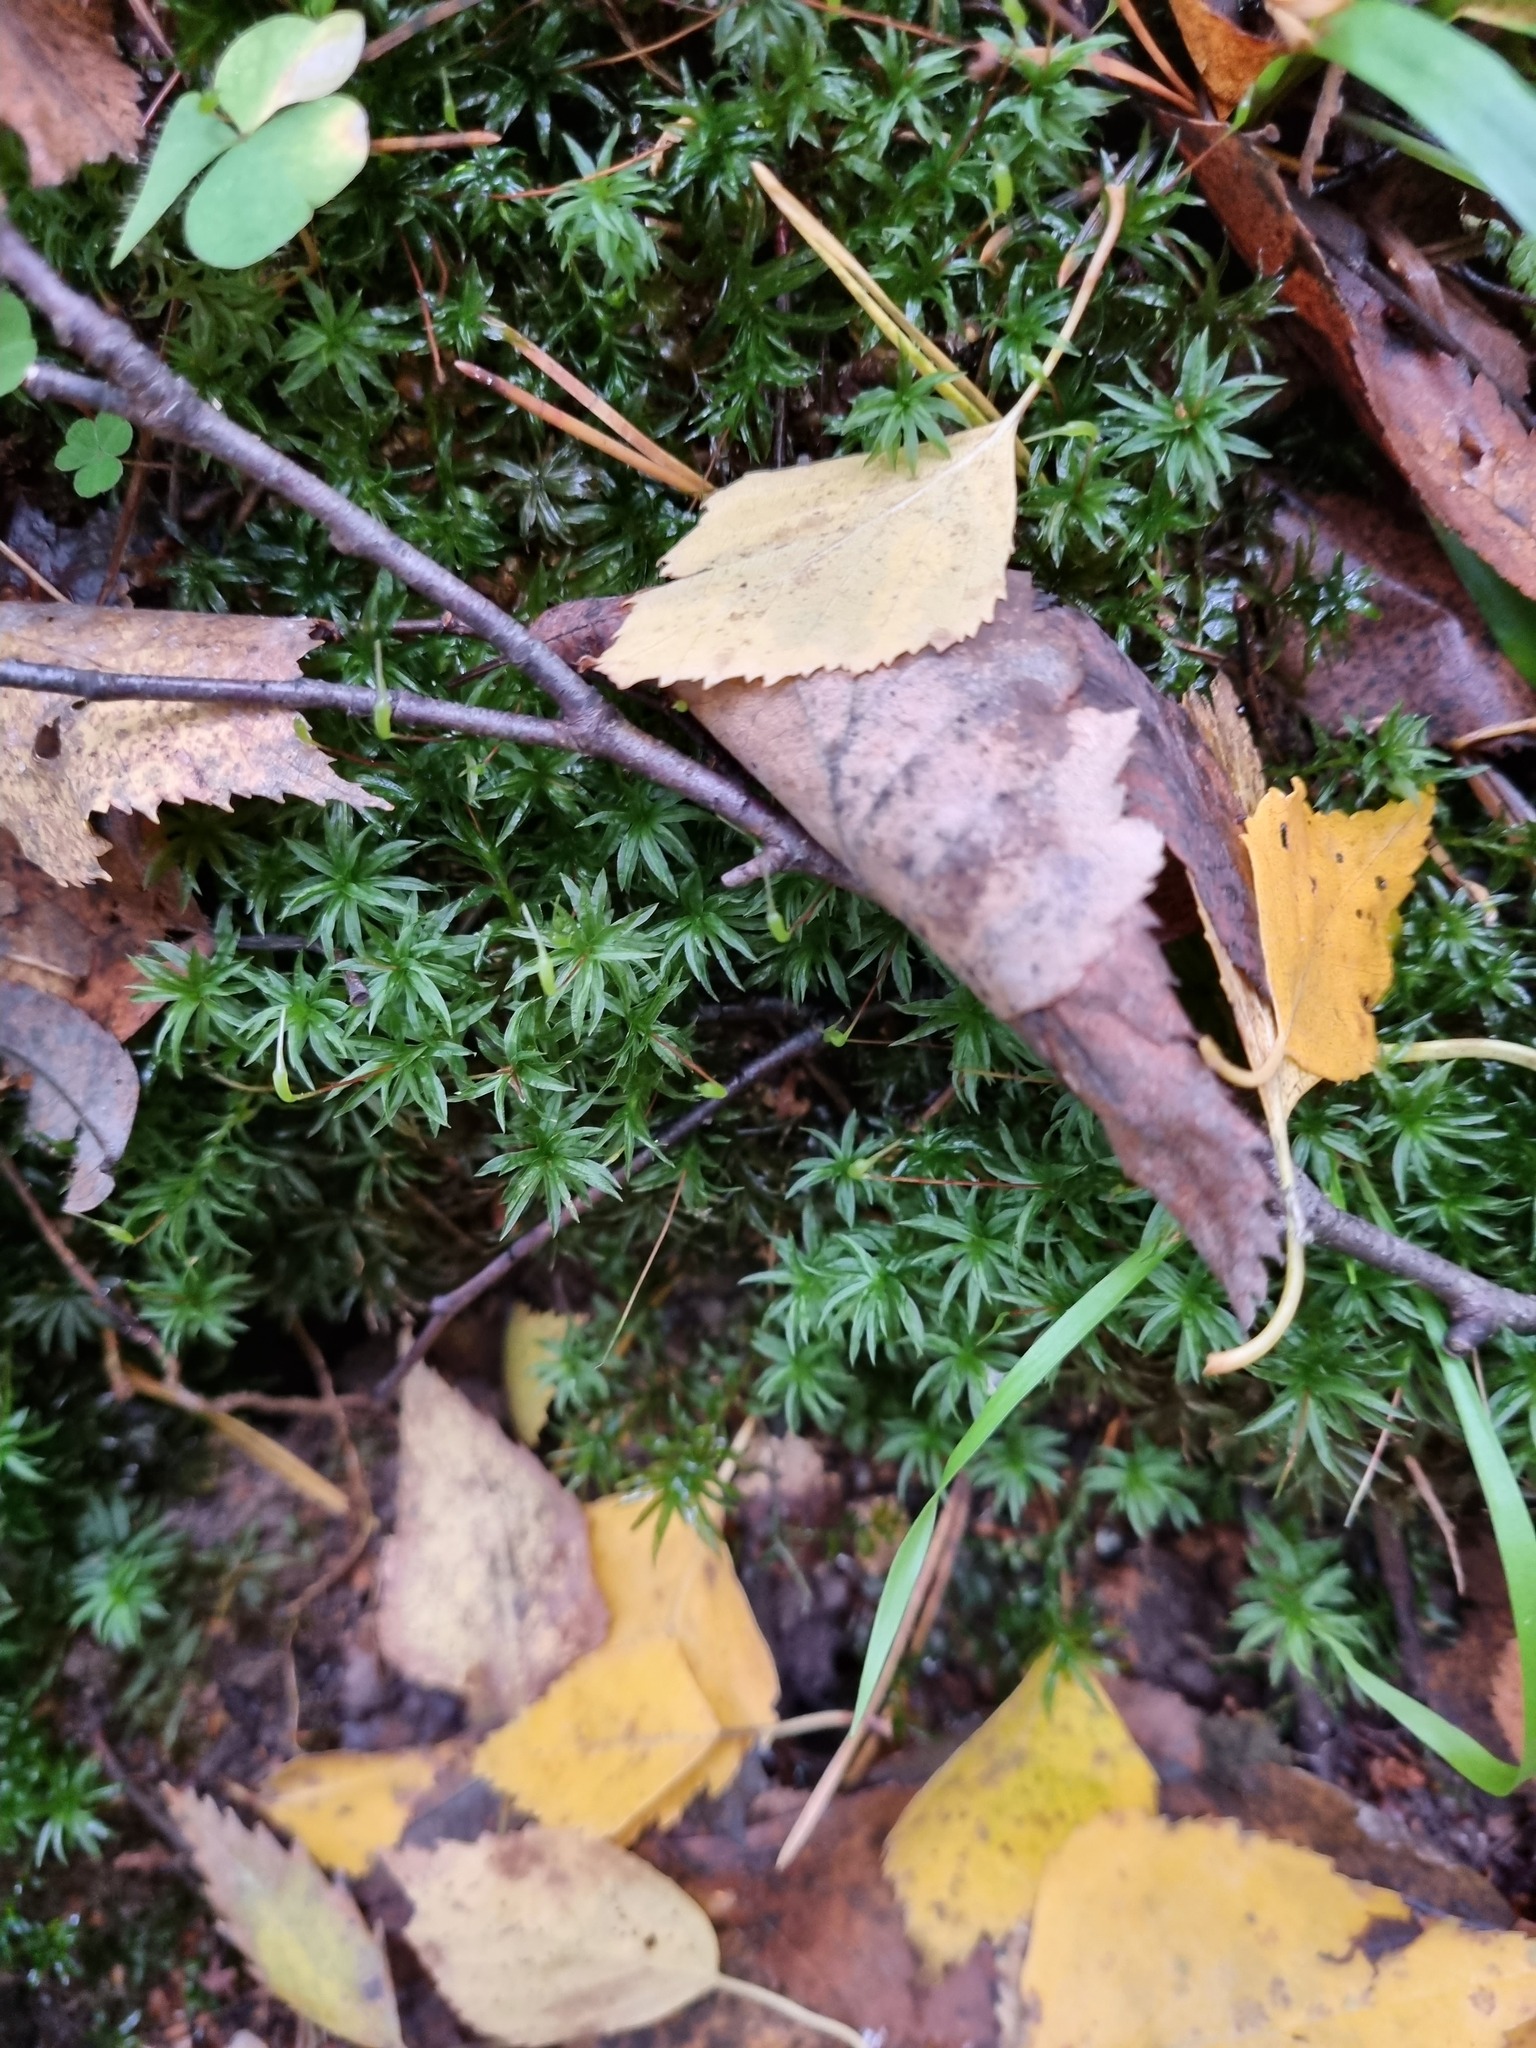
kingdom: Plantae
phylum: Bryophyta
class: Polytrichopsida
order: Polytrichales
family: Polytrichaceae
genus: Atrichum
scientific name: Atrichum undulatum
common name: Common smoothcap
